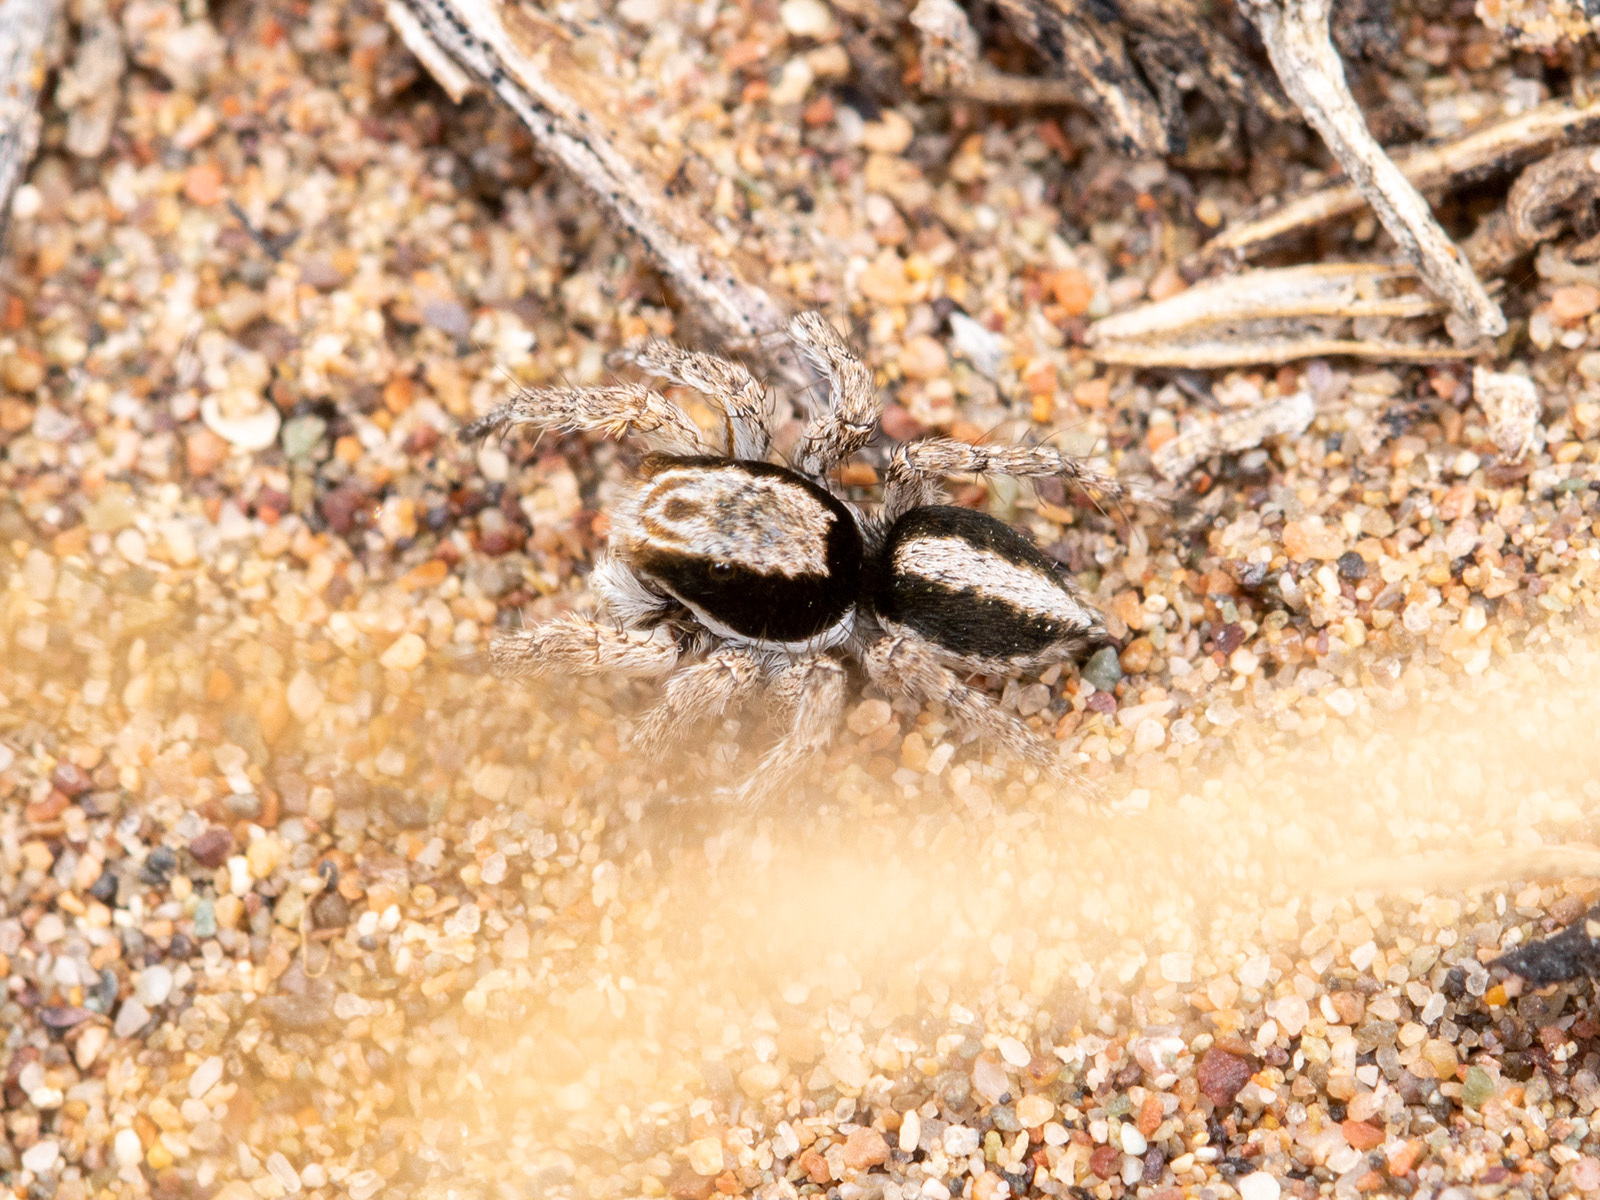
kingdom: Animalia
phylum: Arthropoda
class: Arachnida
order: Araneae
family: Salticidae
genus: Aelurillus
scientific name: Aelurillus nenilini
